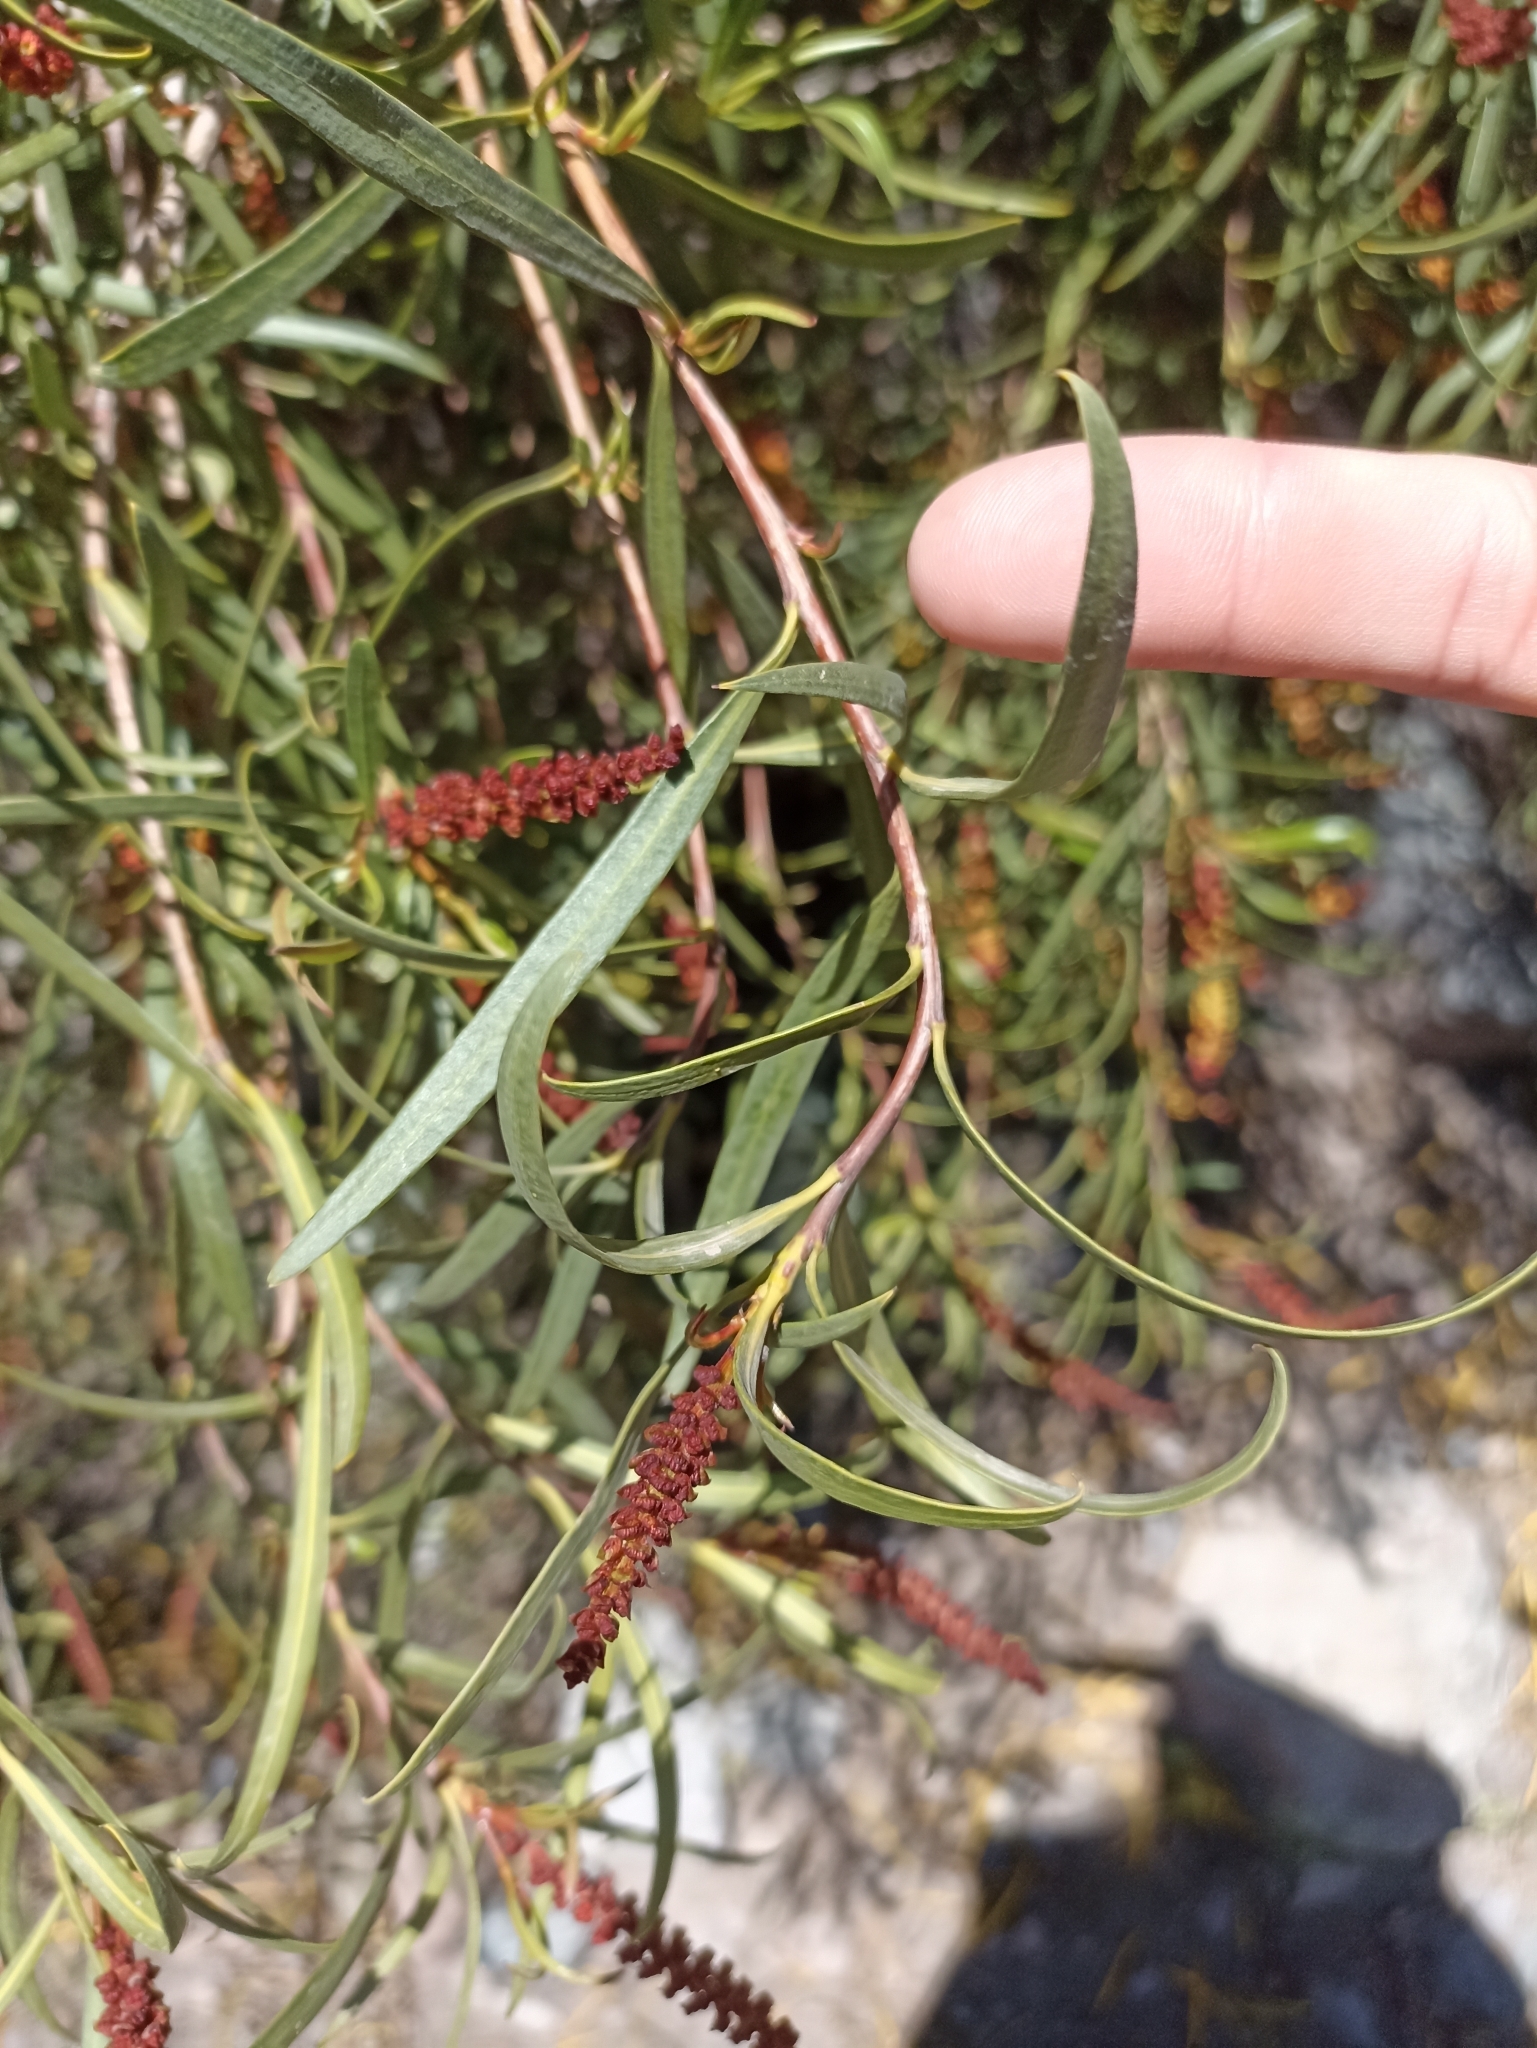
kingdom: Plantae
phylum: Tracheophyta
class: Magnoliopsida
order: Malpighiales
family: Euphorbiaceae
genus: Colliguaja
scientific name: Colliguaja integerrima
